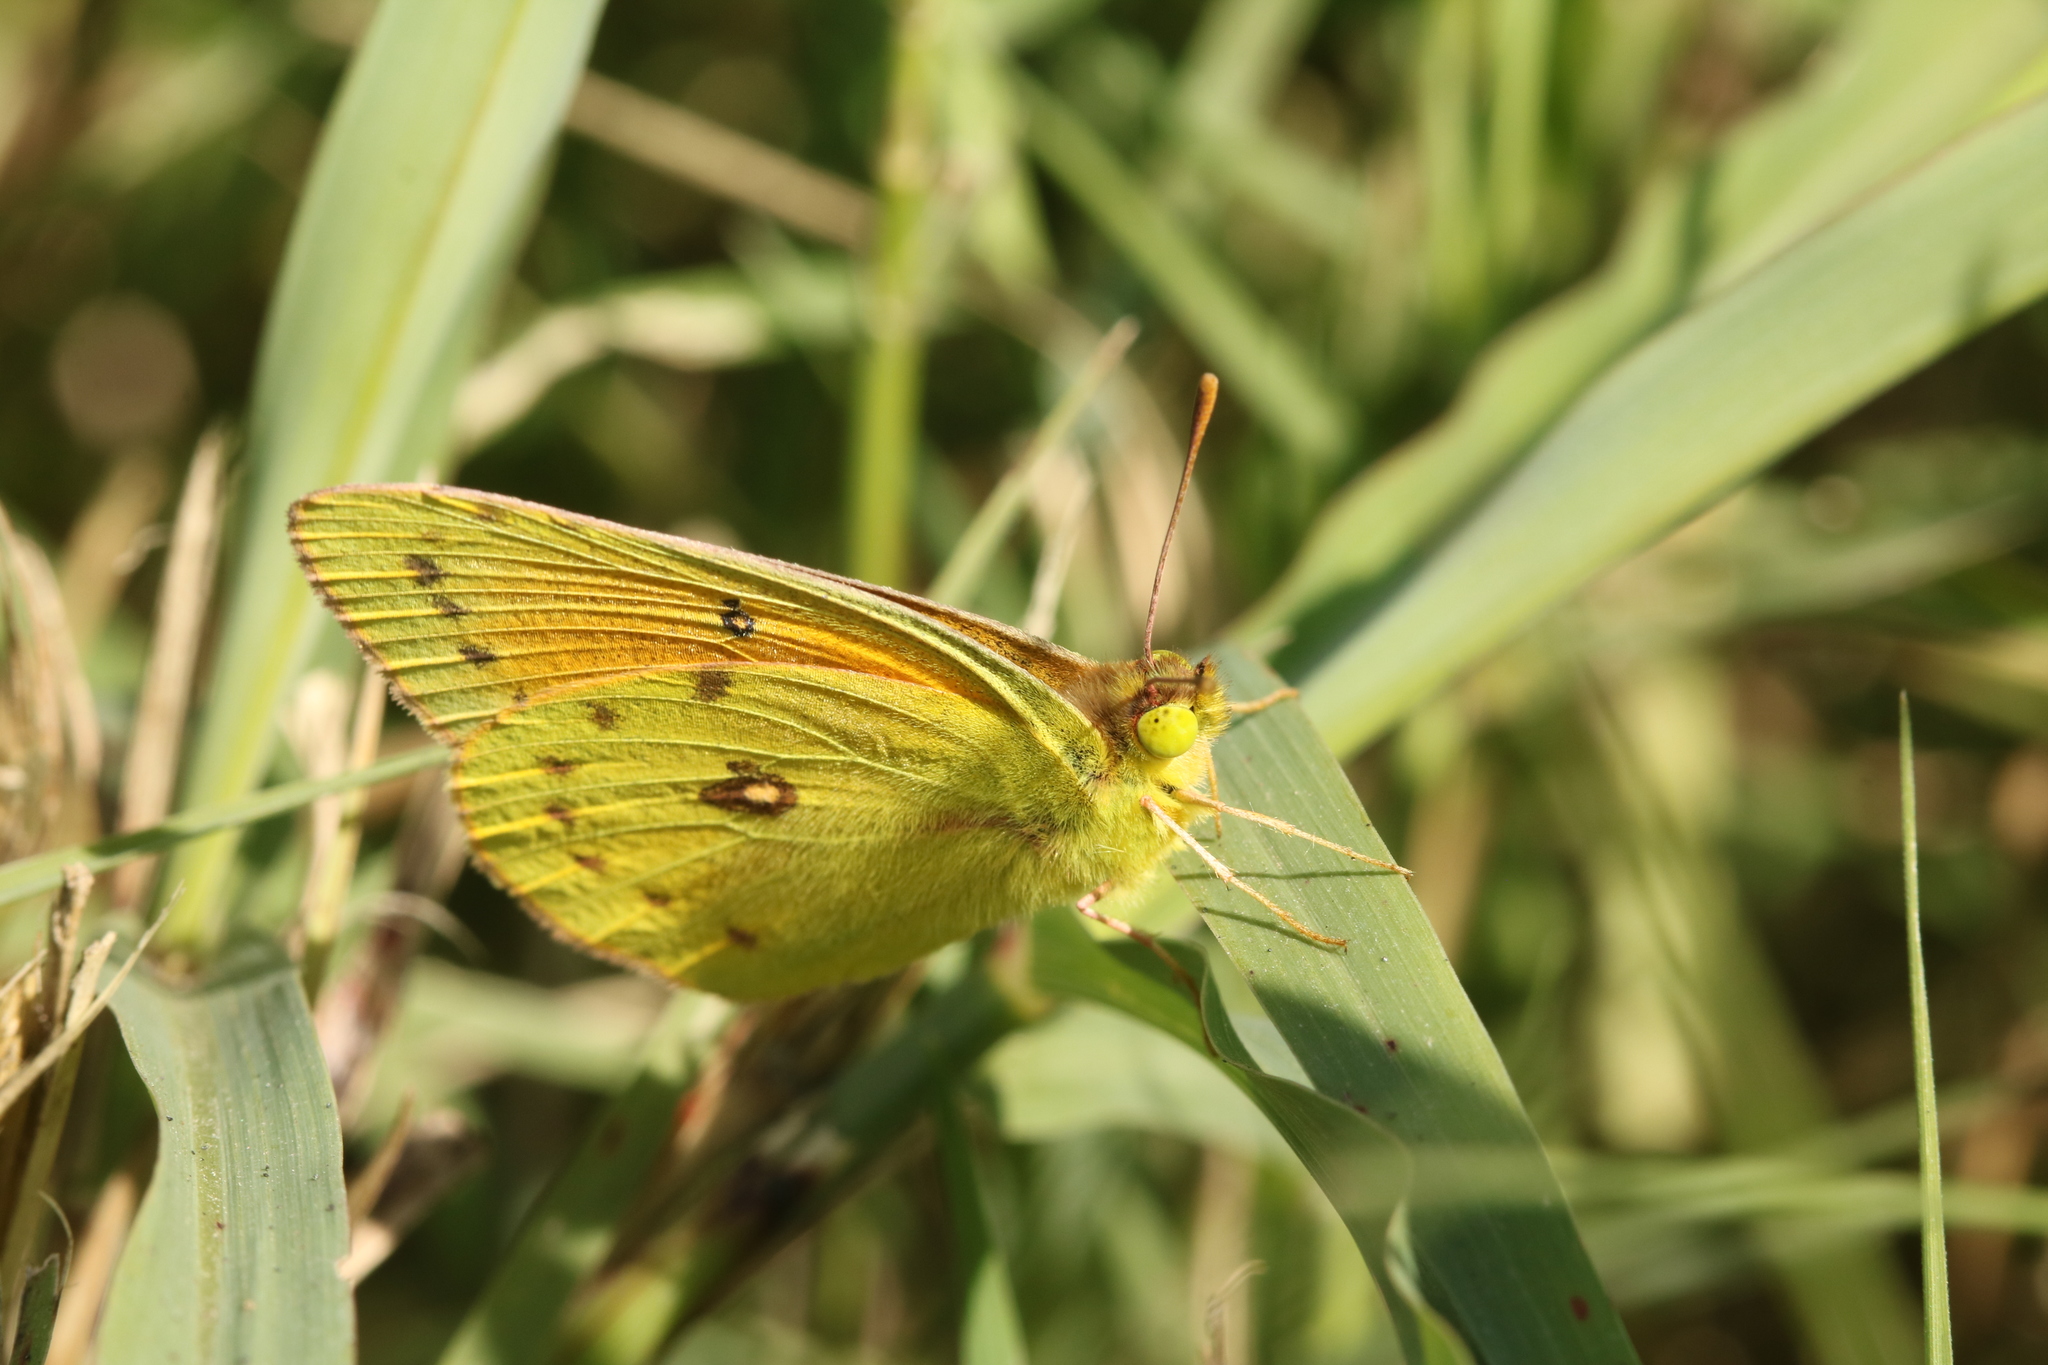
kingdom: Animalia
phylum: Arthropoda
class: Insecta
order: Lepidoptera
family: Pieridae
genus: Colias
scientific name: Colias lesbia
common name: Lesbia clouded yellow
